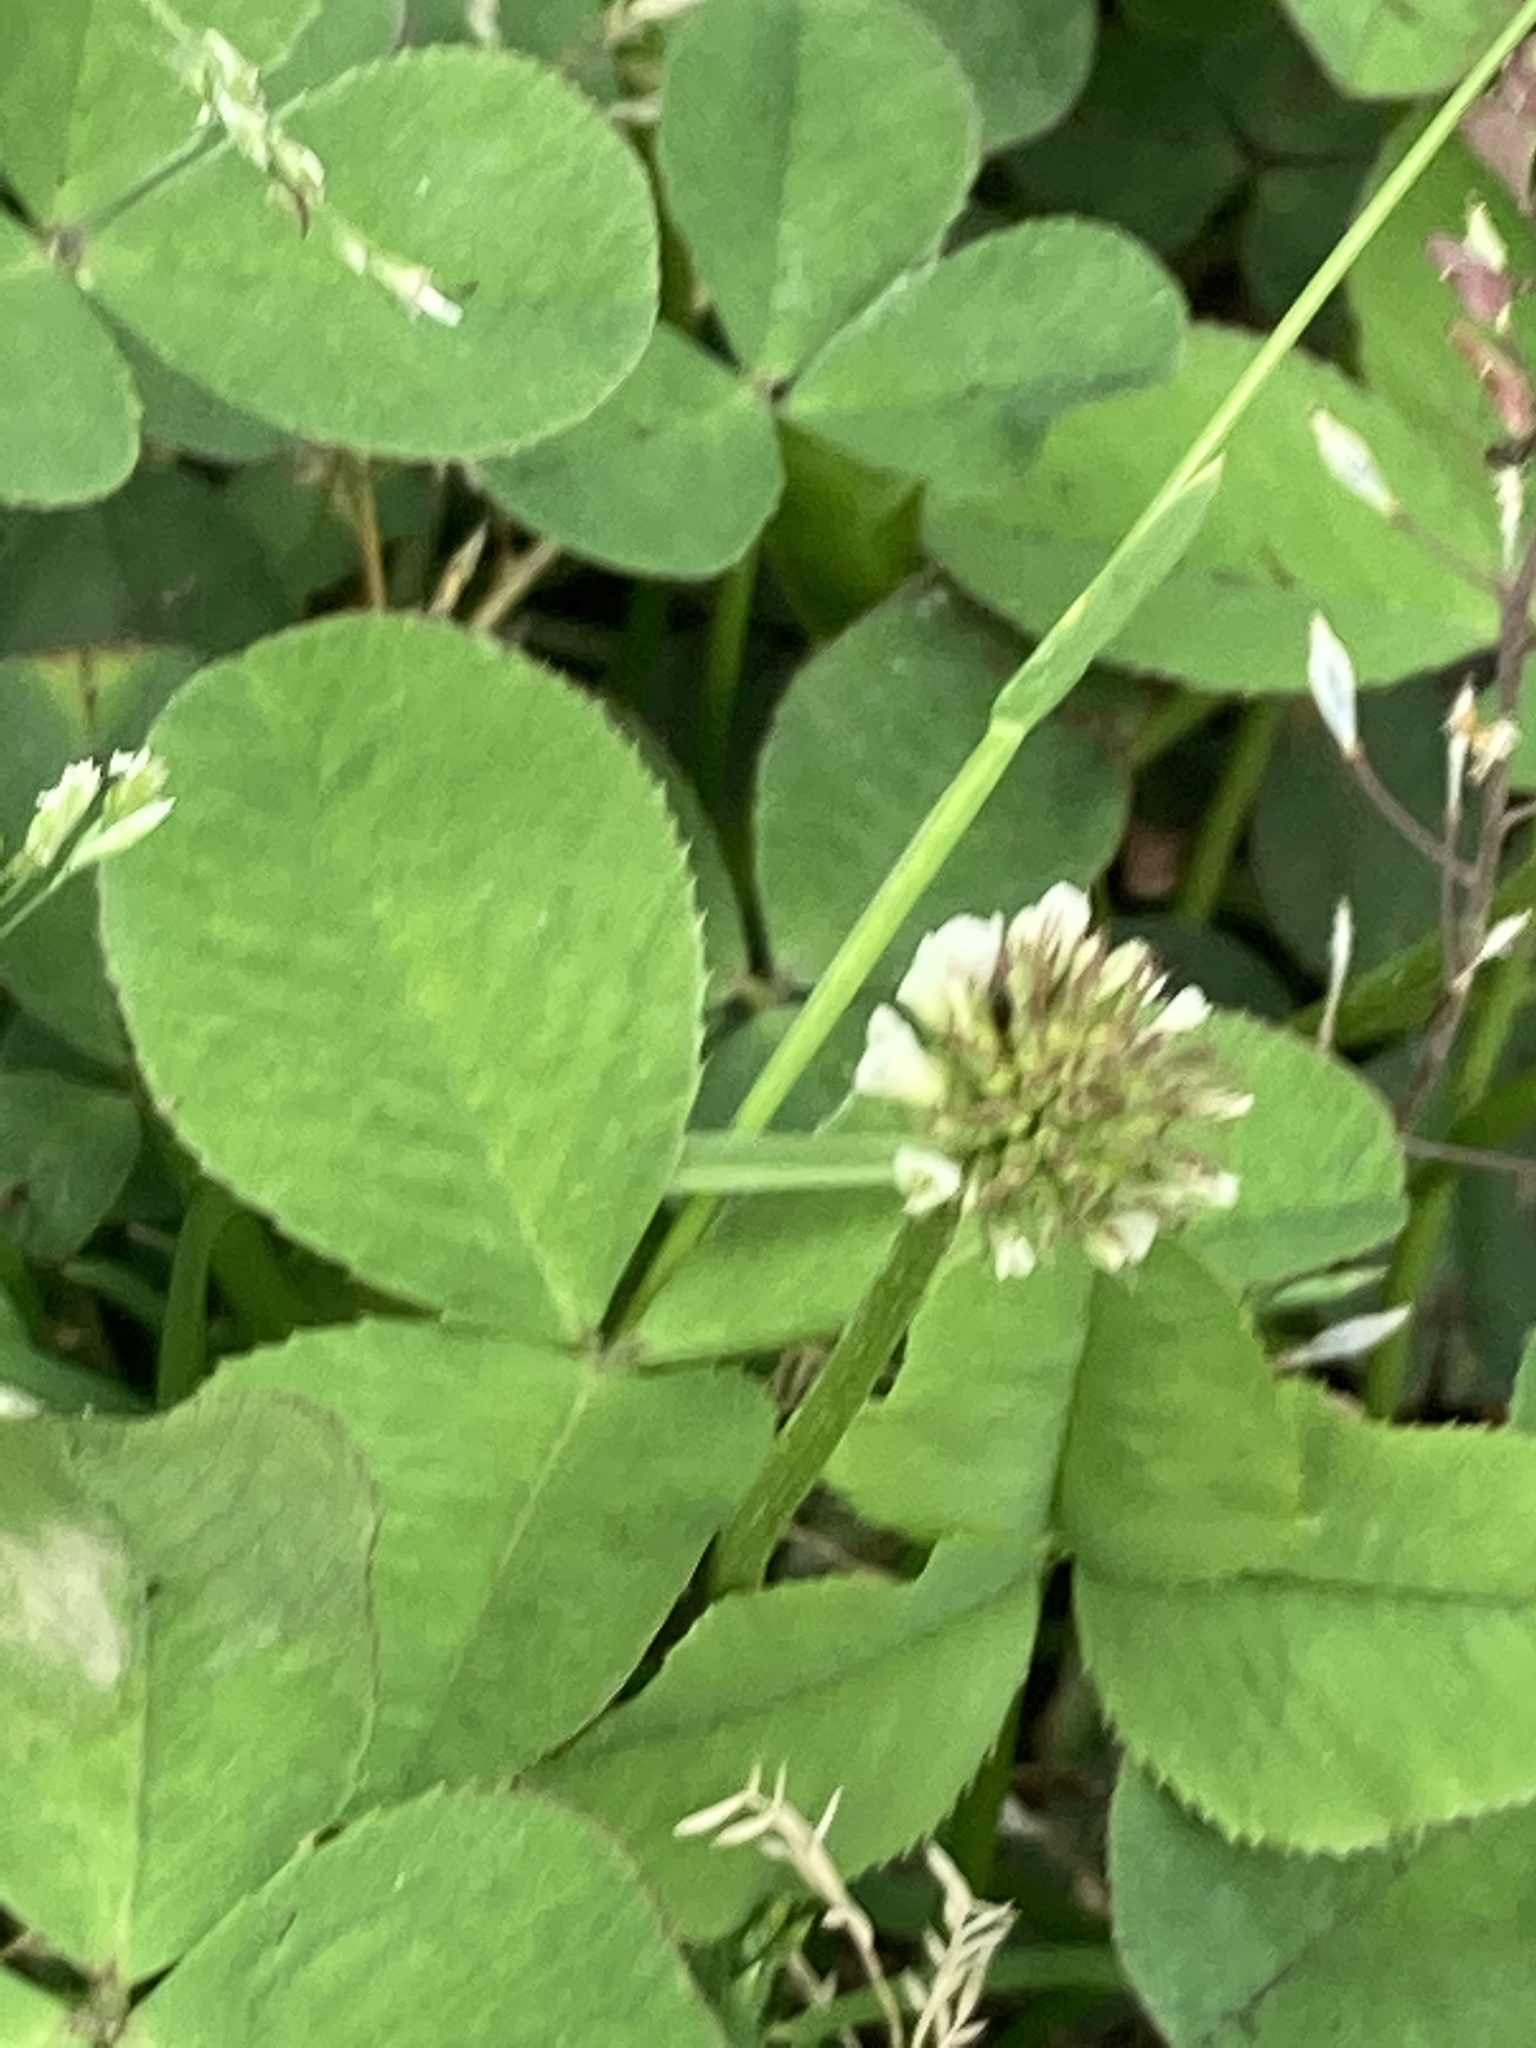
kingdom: Plantae
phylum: Tracheophyta
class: Magnoliopsida
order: Fabales
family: Fabaceae
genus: Trifolium
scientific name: Trifolium repens
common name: White clover
